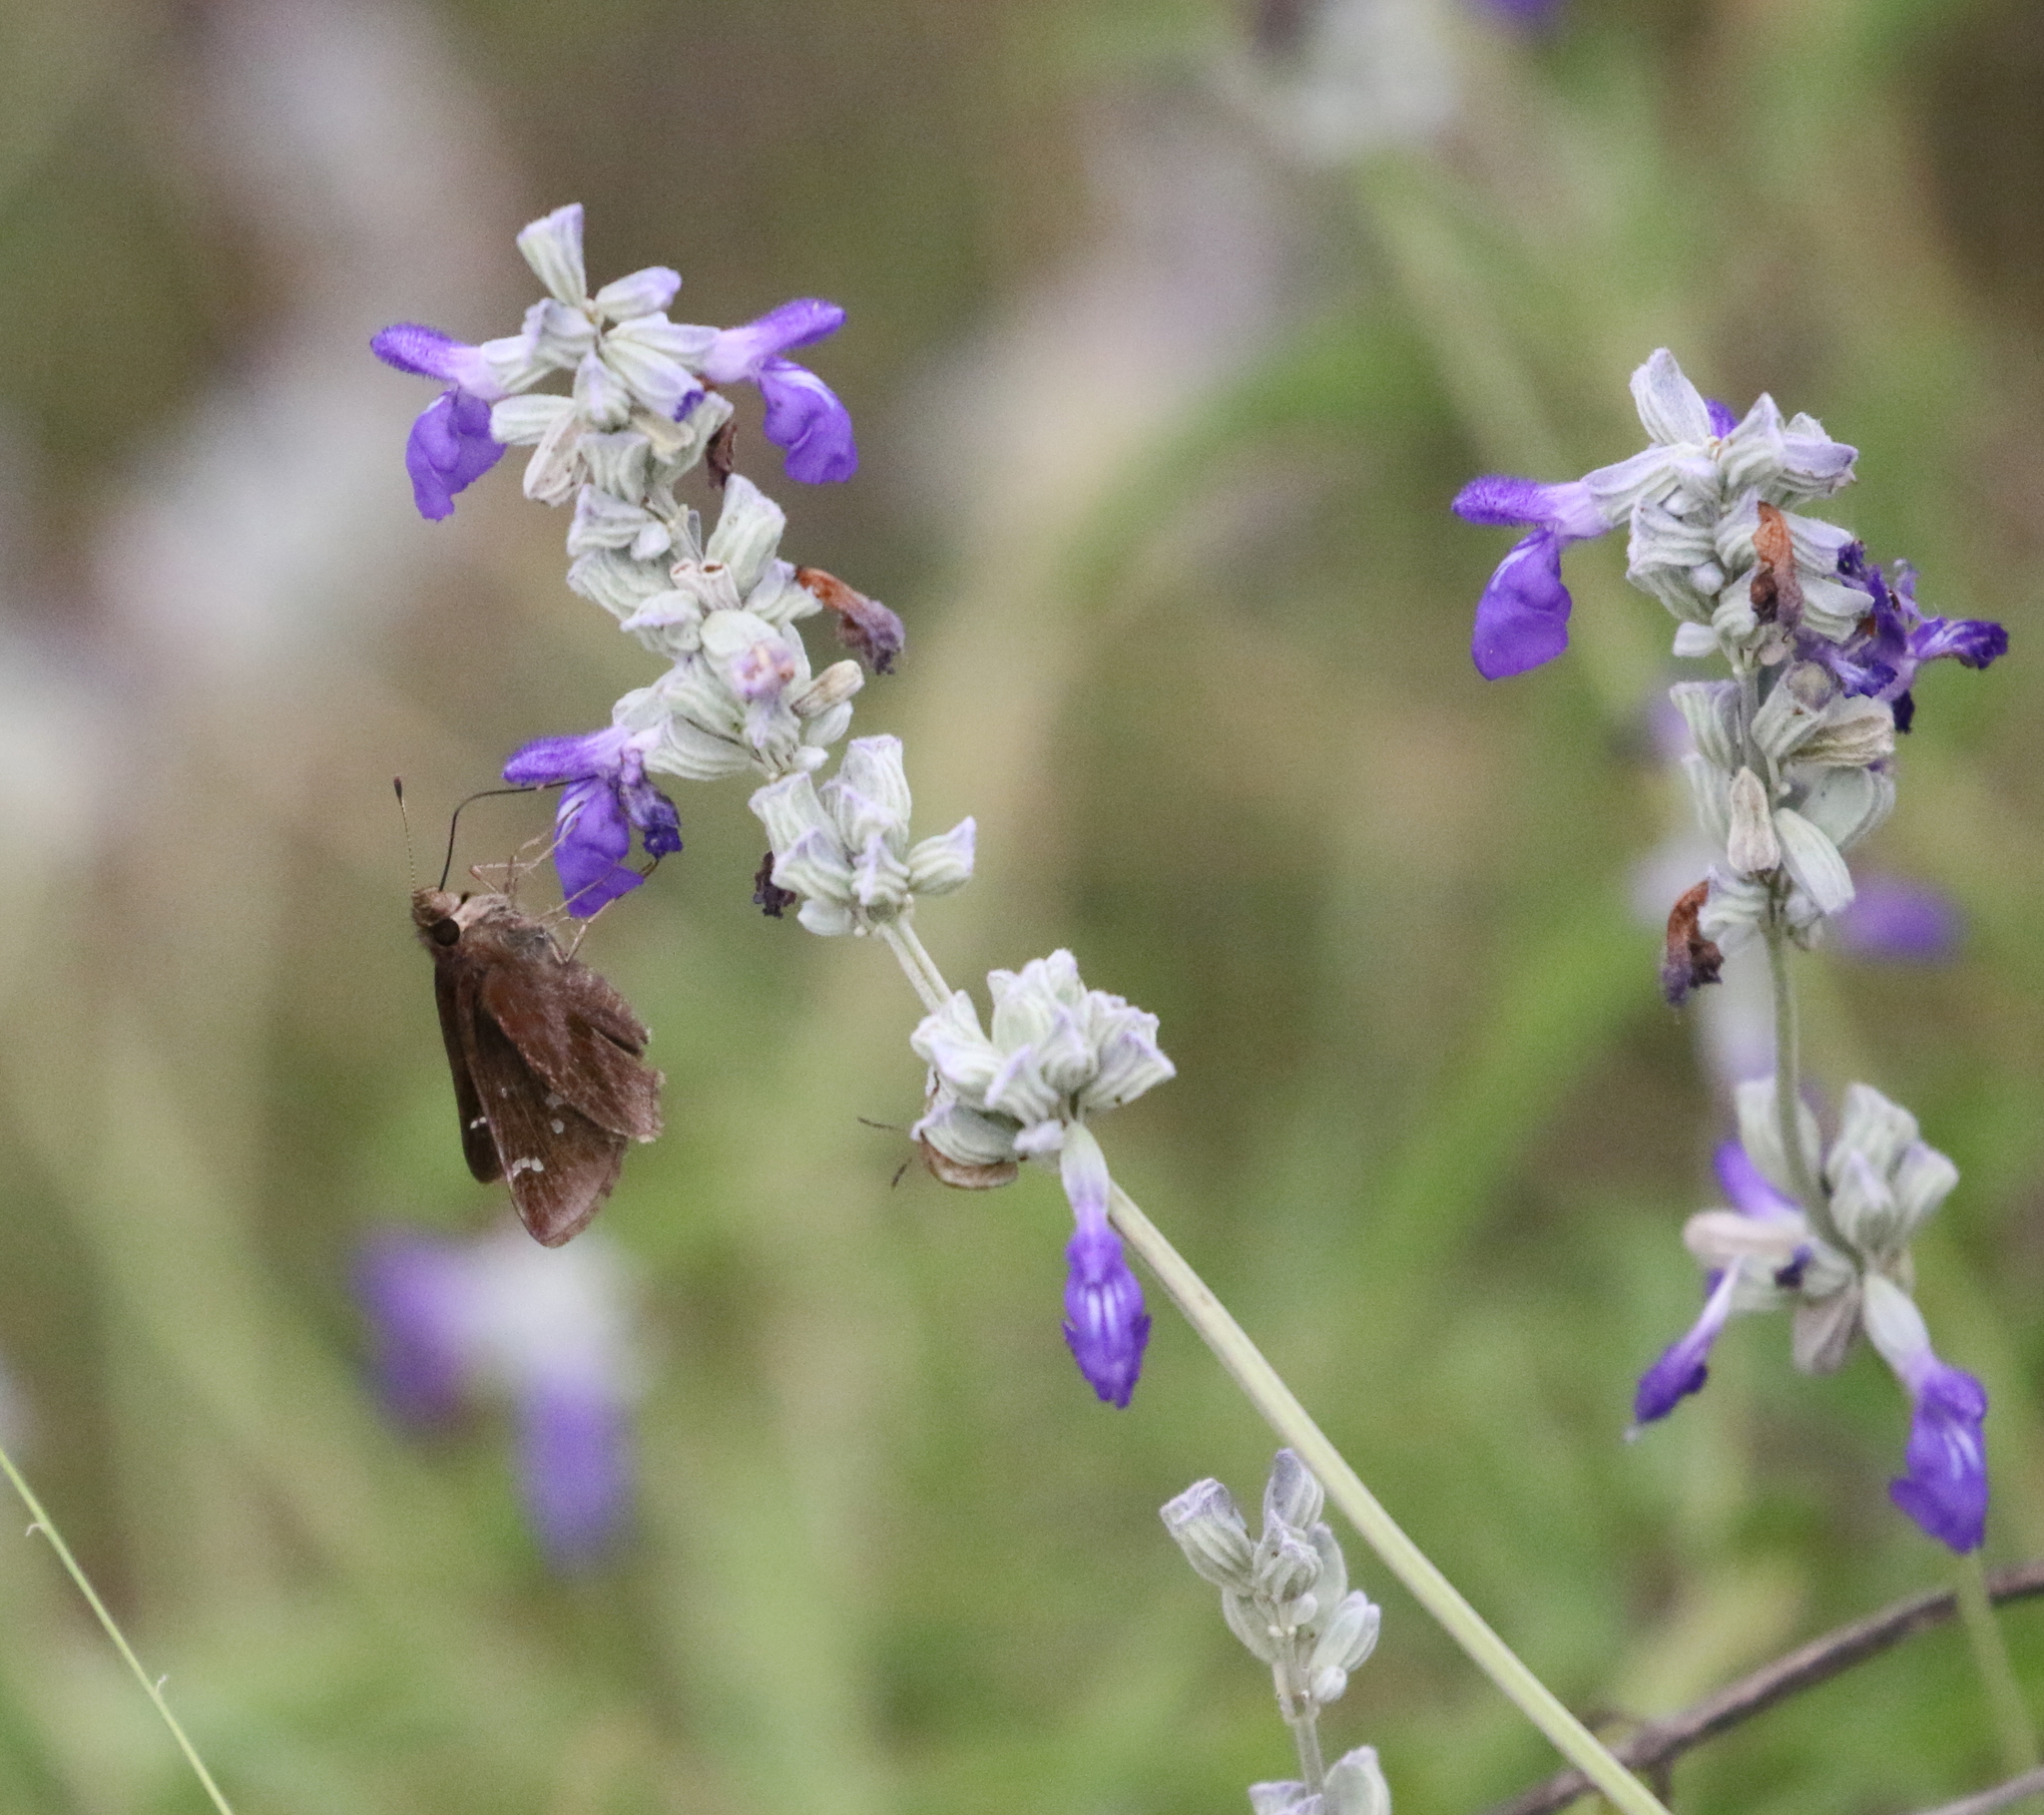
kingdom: Animalia
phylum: Arthropoda
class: Insecta
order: Lepidoptera
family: Hesperiidae
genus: Lerema
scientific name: Lerema accius
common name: Clouded skipper
